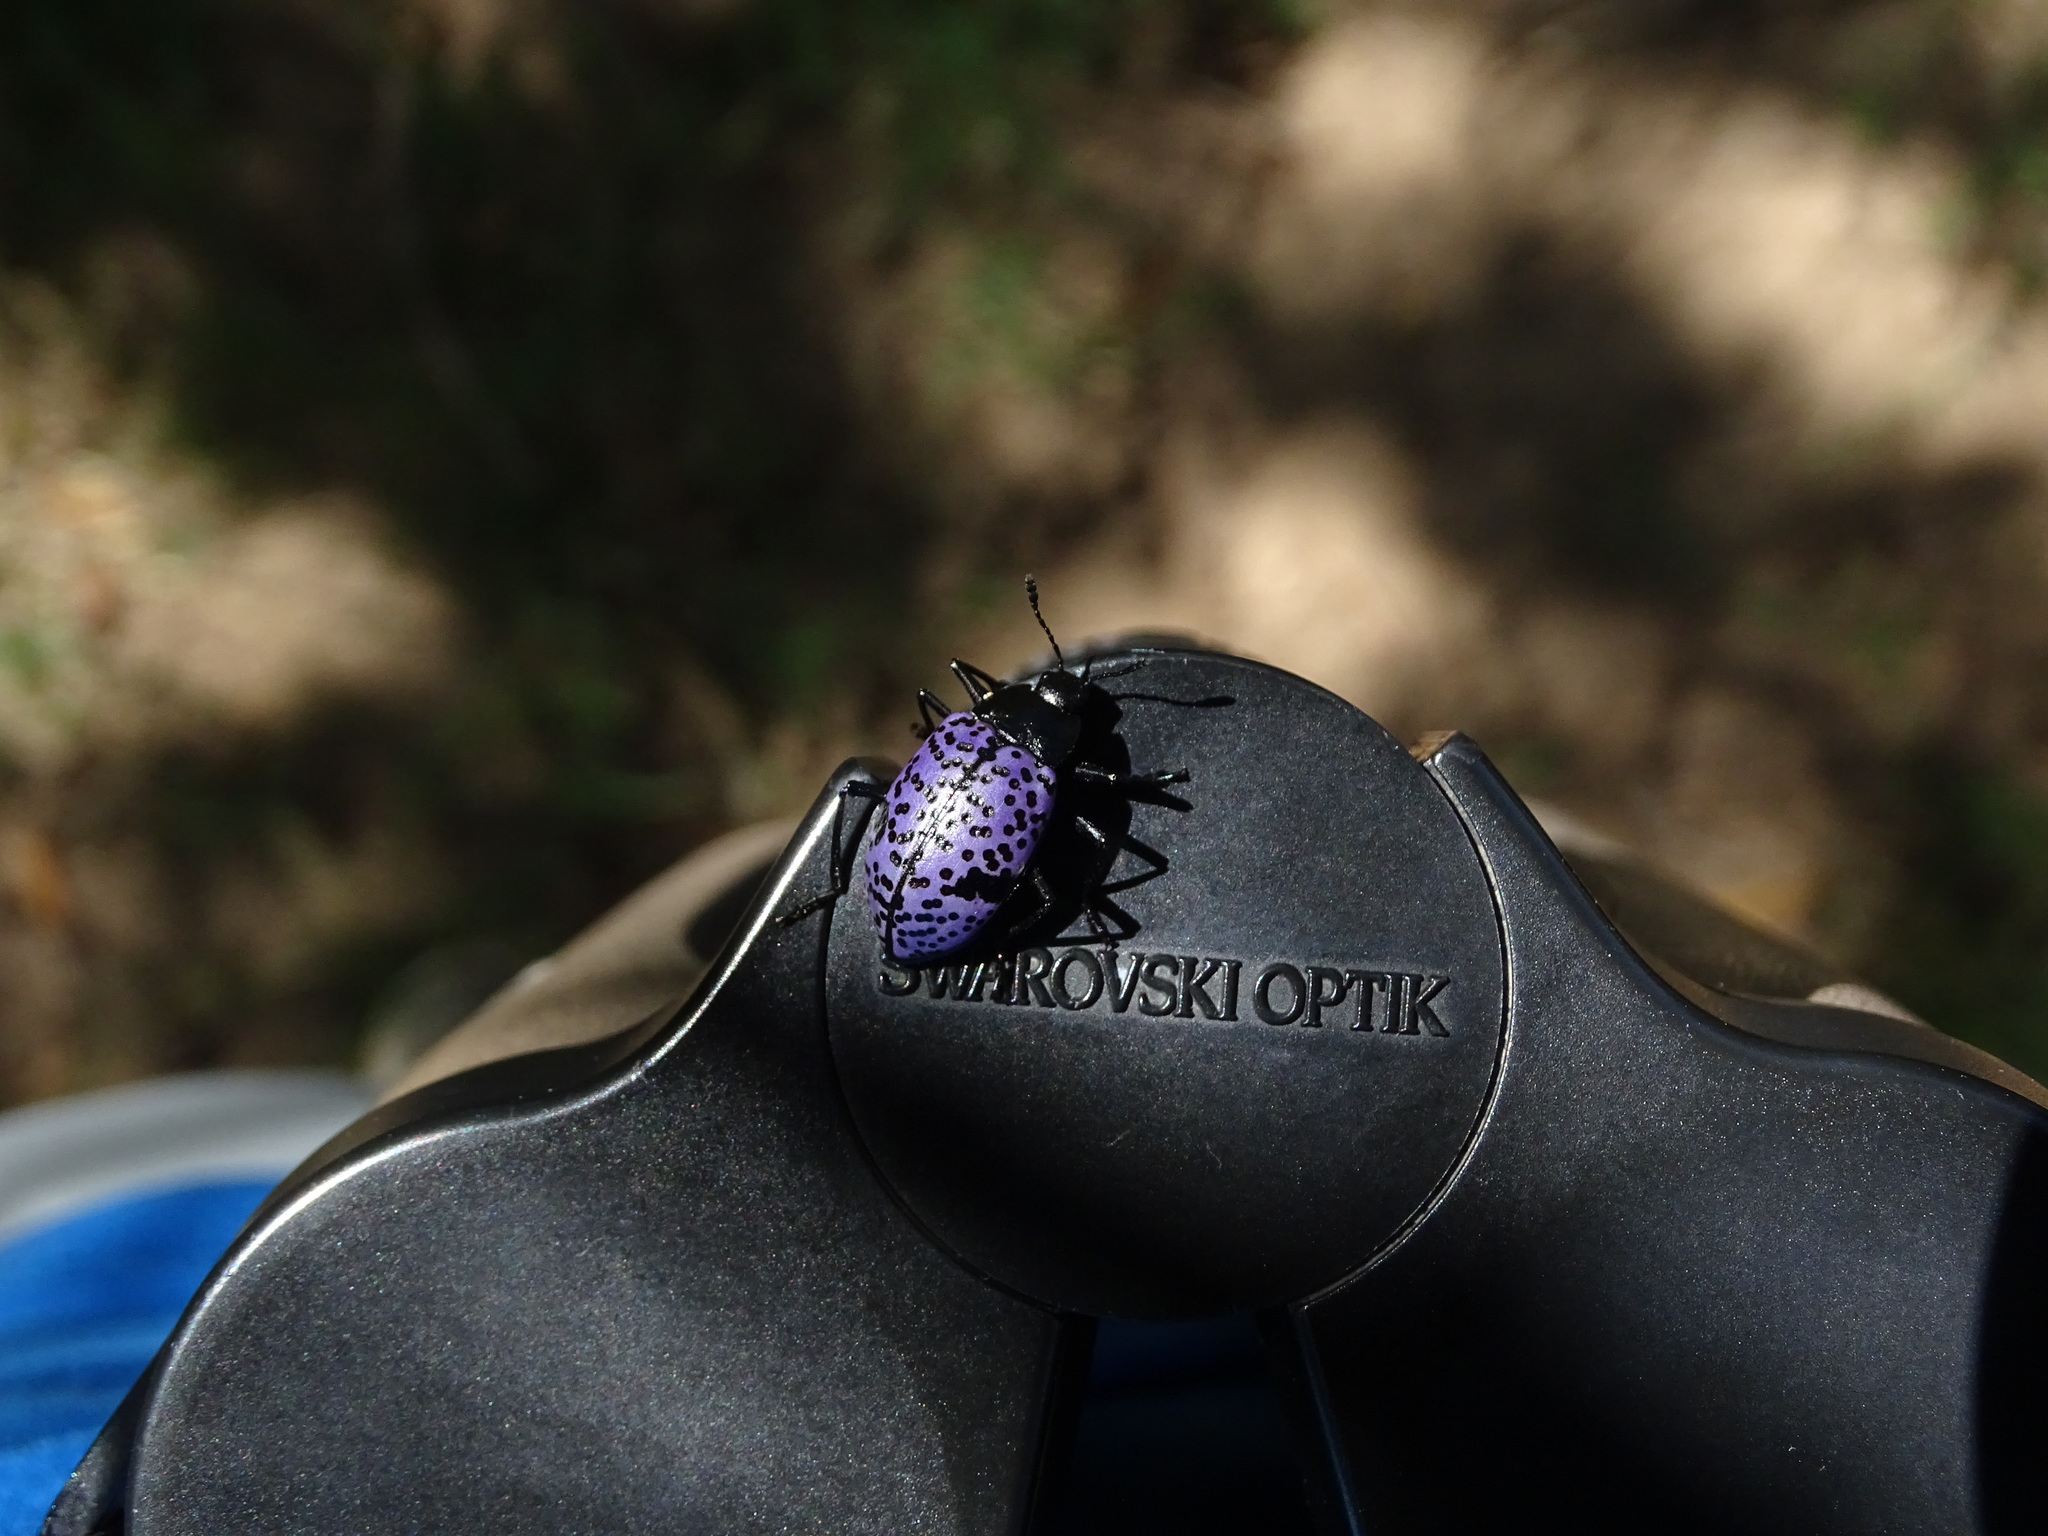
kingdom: Animalia
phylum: Arthropoda
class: Insecta
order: Coleoptera
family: Erotylidae
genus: Gibbifer
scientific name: Gibbifer californicus
